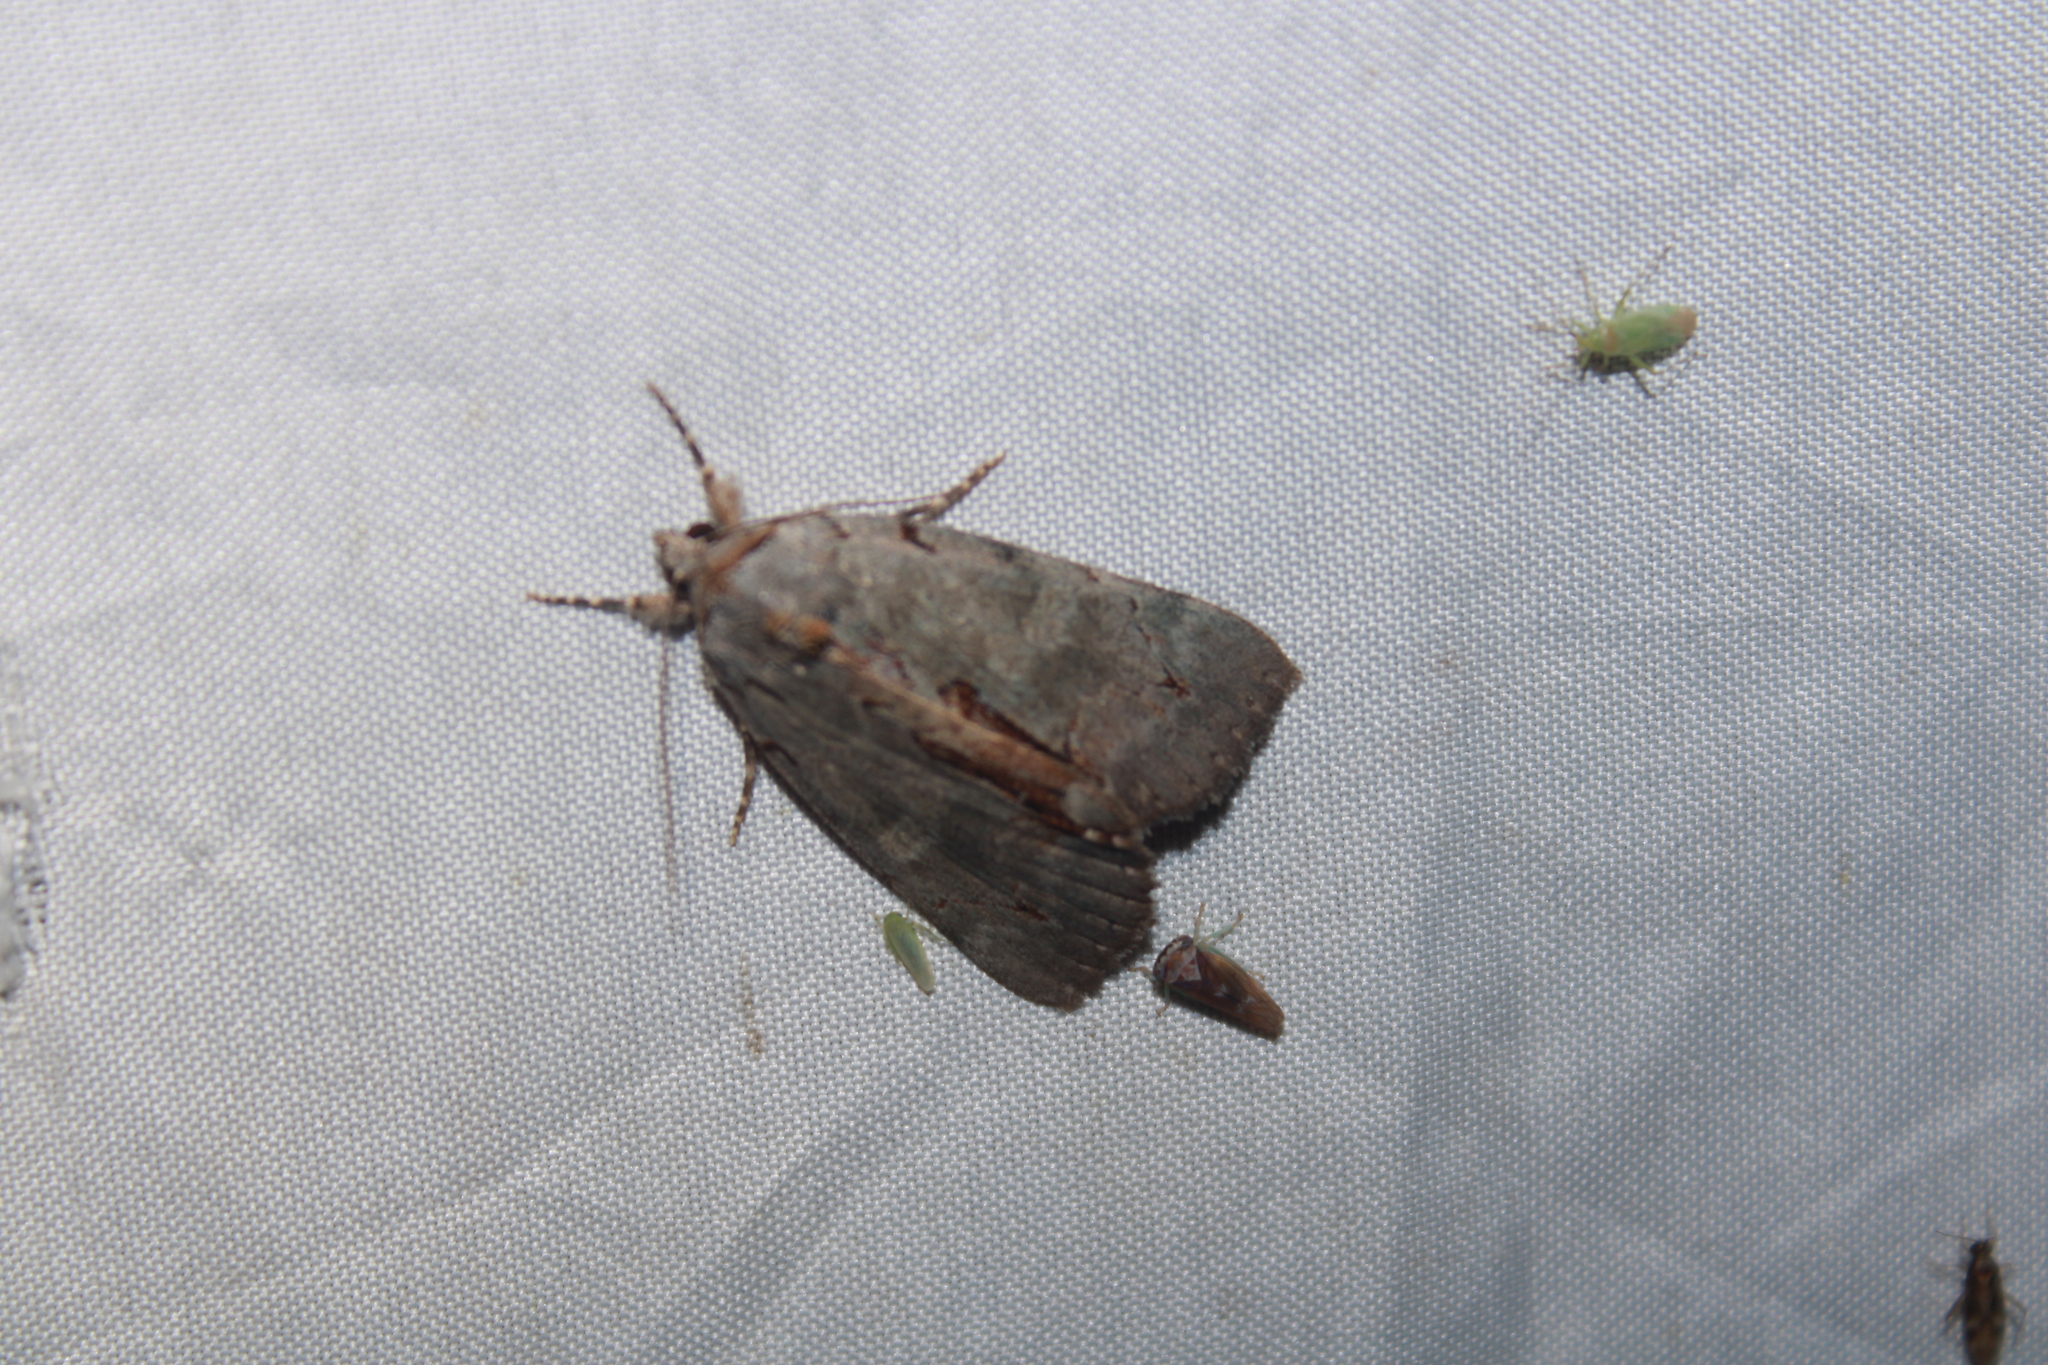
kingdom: Animalia
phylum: Arthropoda
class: Insecta
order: Lepidoptera
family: Erebidae
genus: Catocala
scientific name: Catocala grynea
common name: Woody underwing
